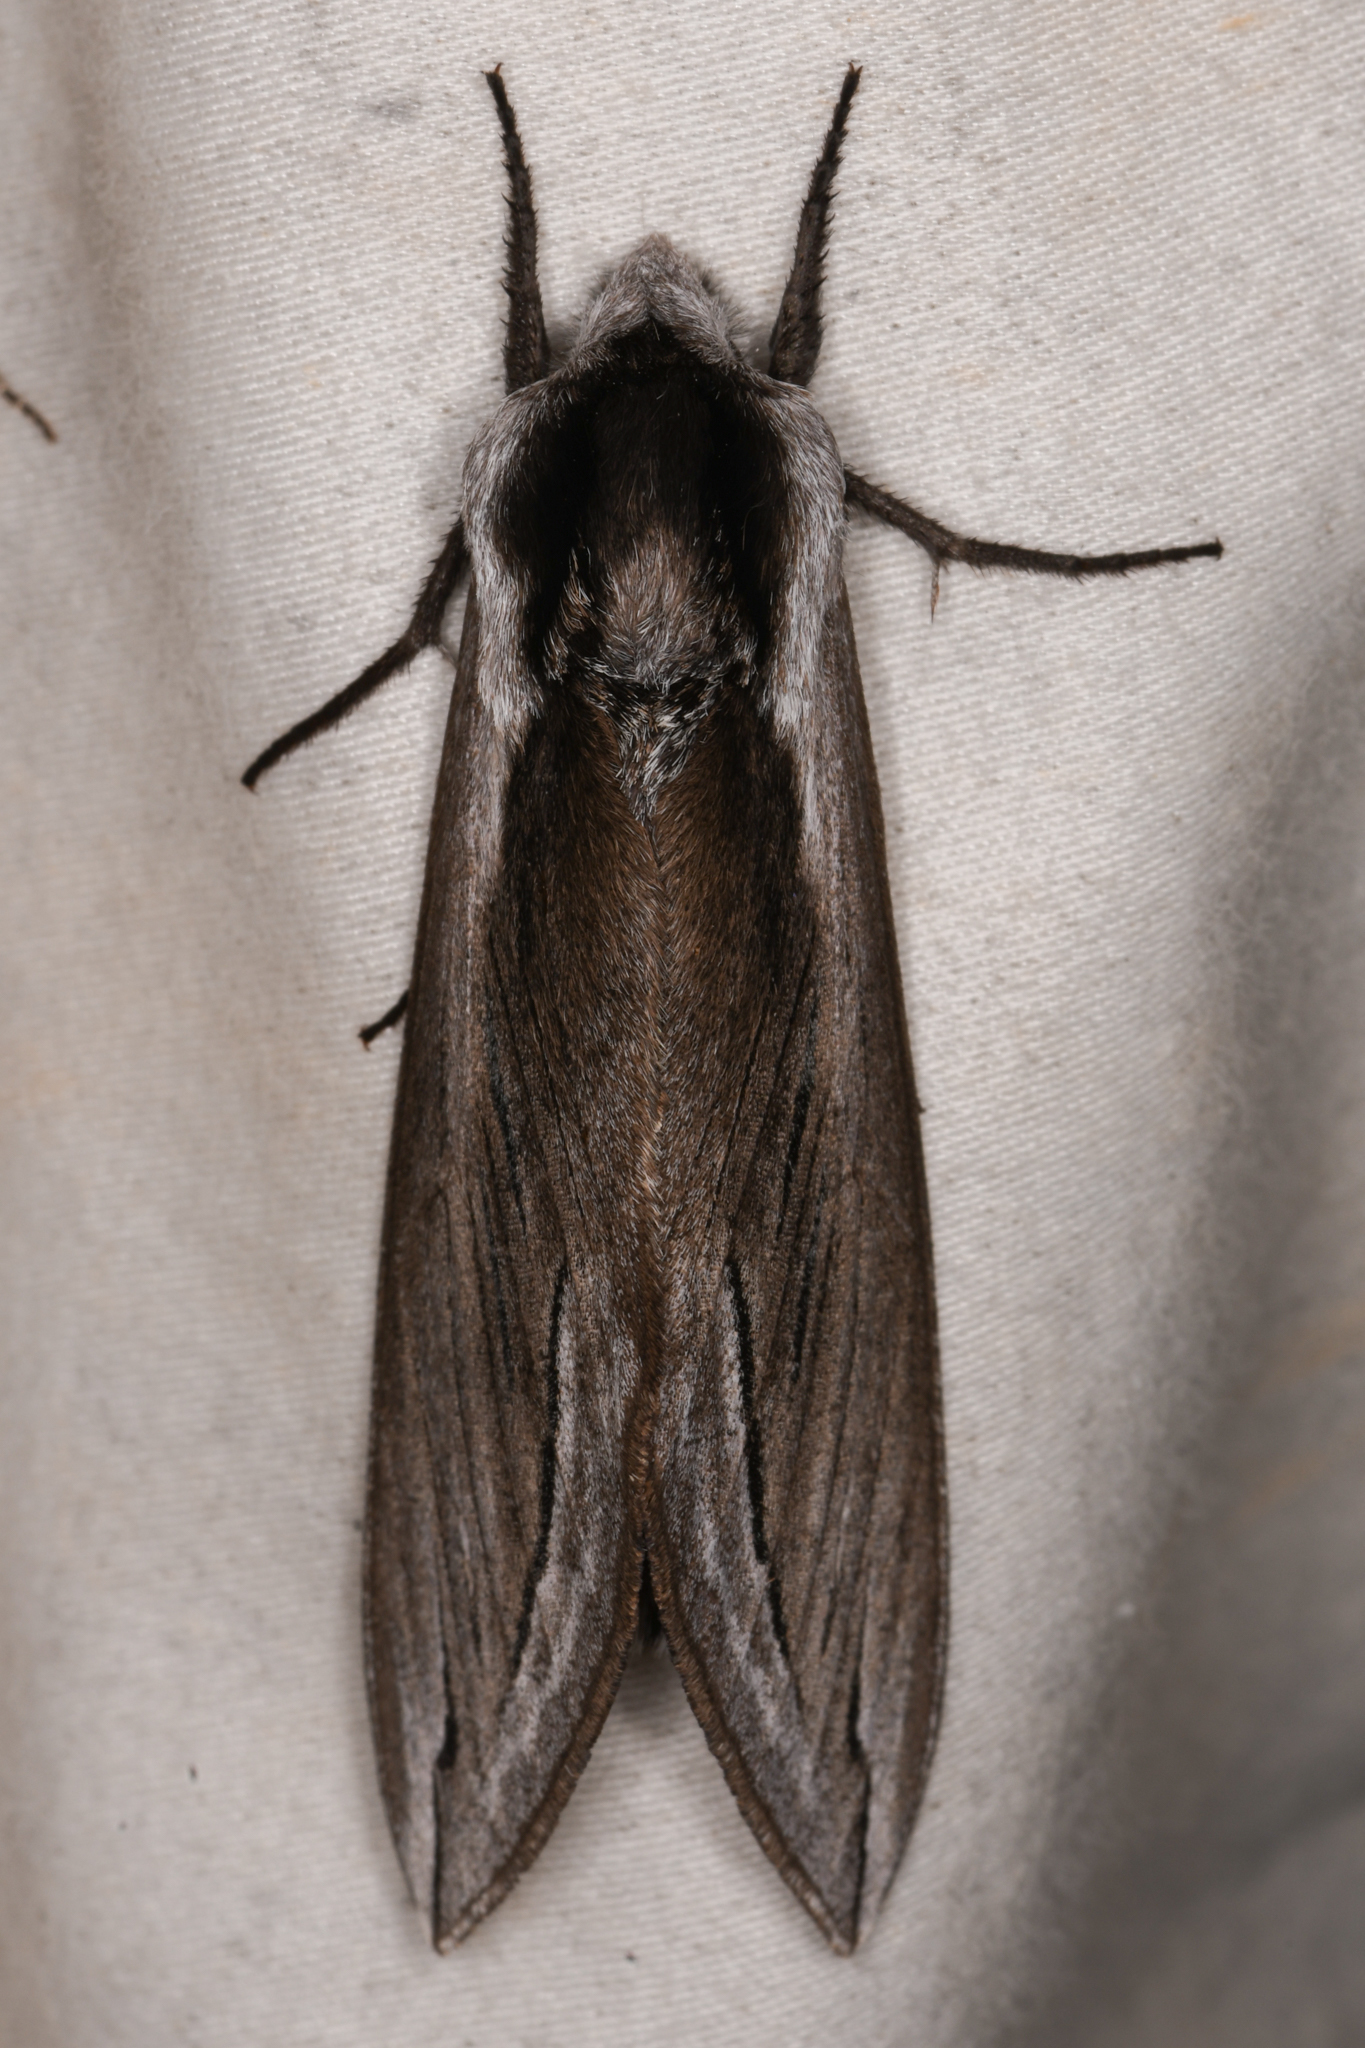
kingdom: Animalia
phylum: Arthropoda
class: Insecta
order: Lepidoptera
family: Sphingidae
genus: Sphinx
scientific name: Sphinx vashti
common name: Snowberry sphinx
